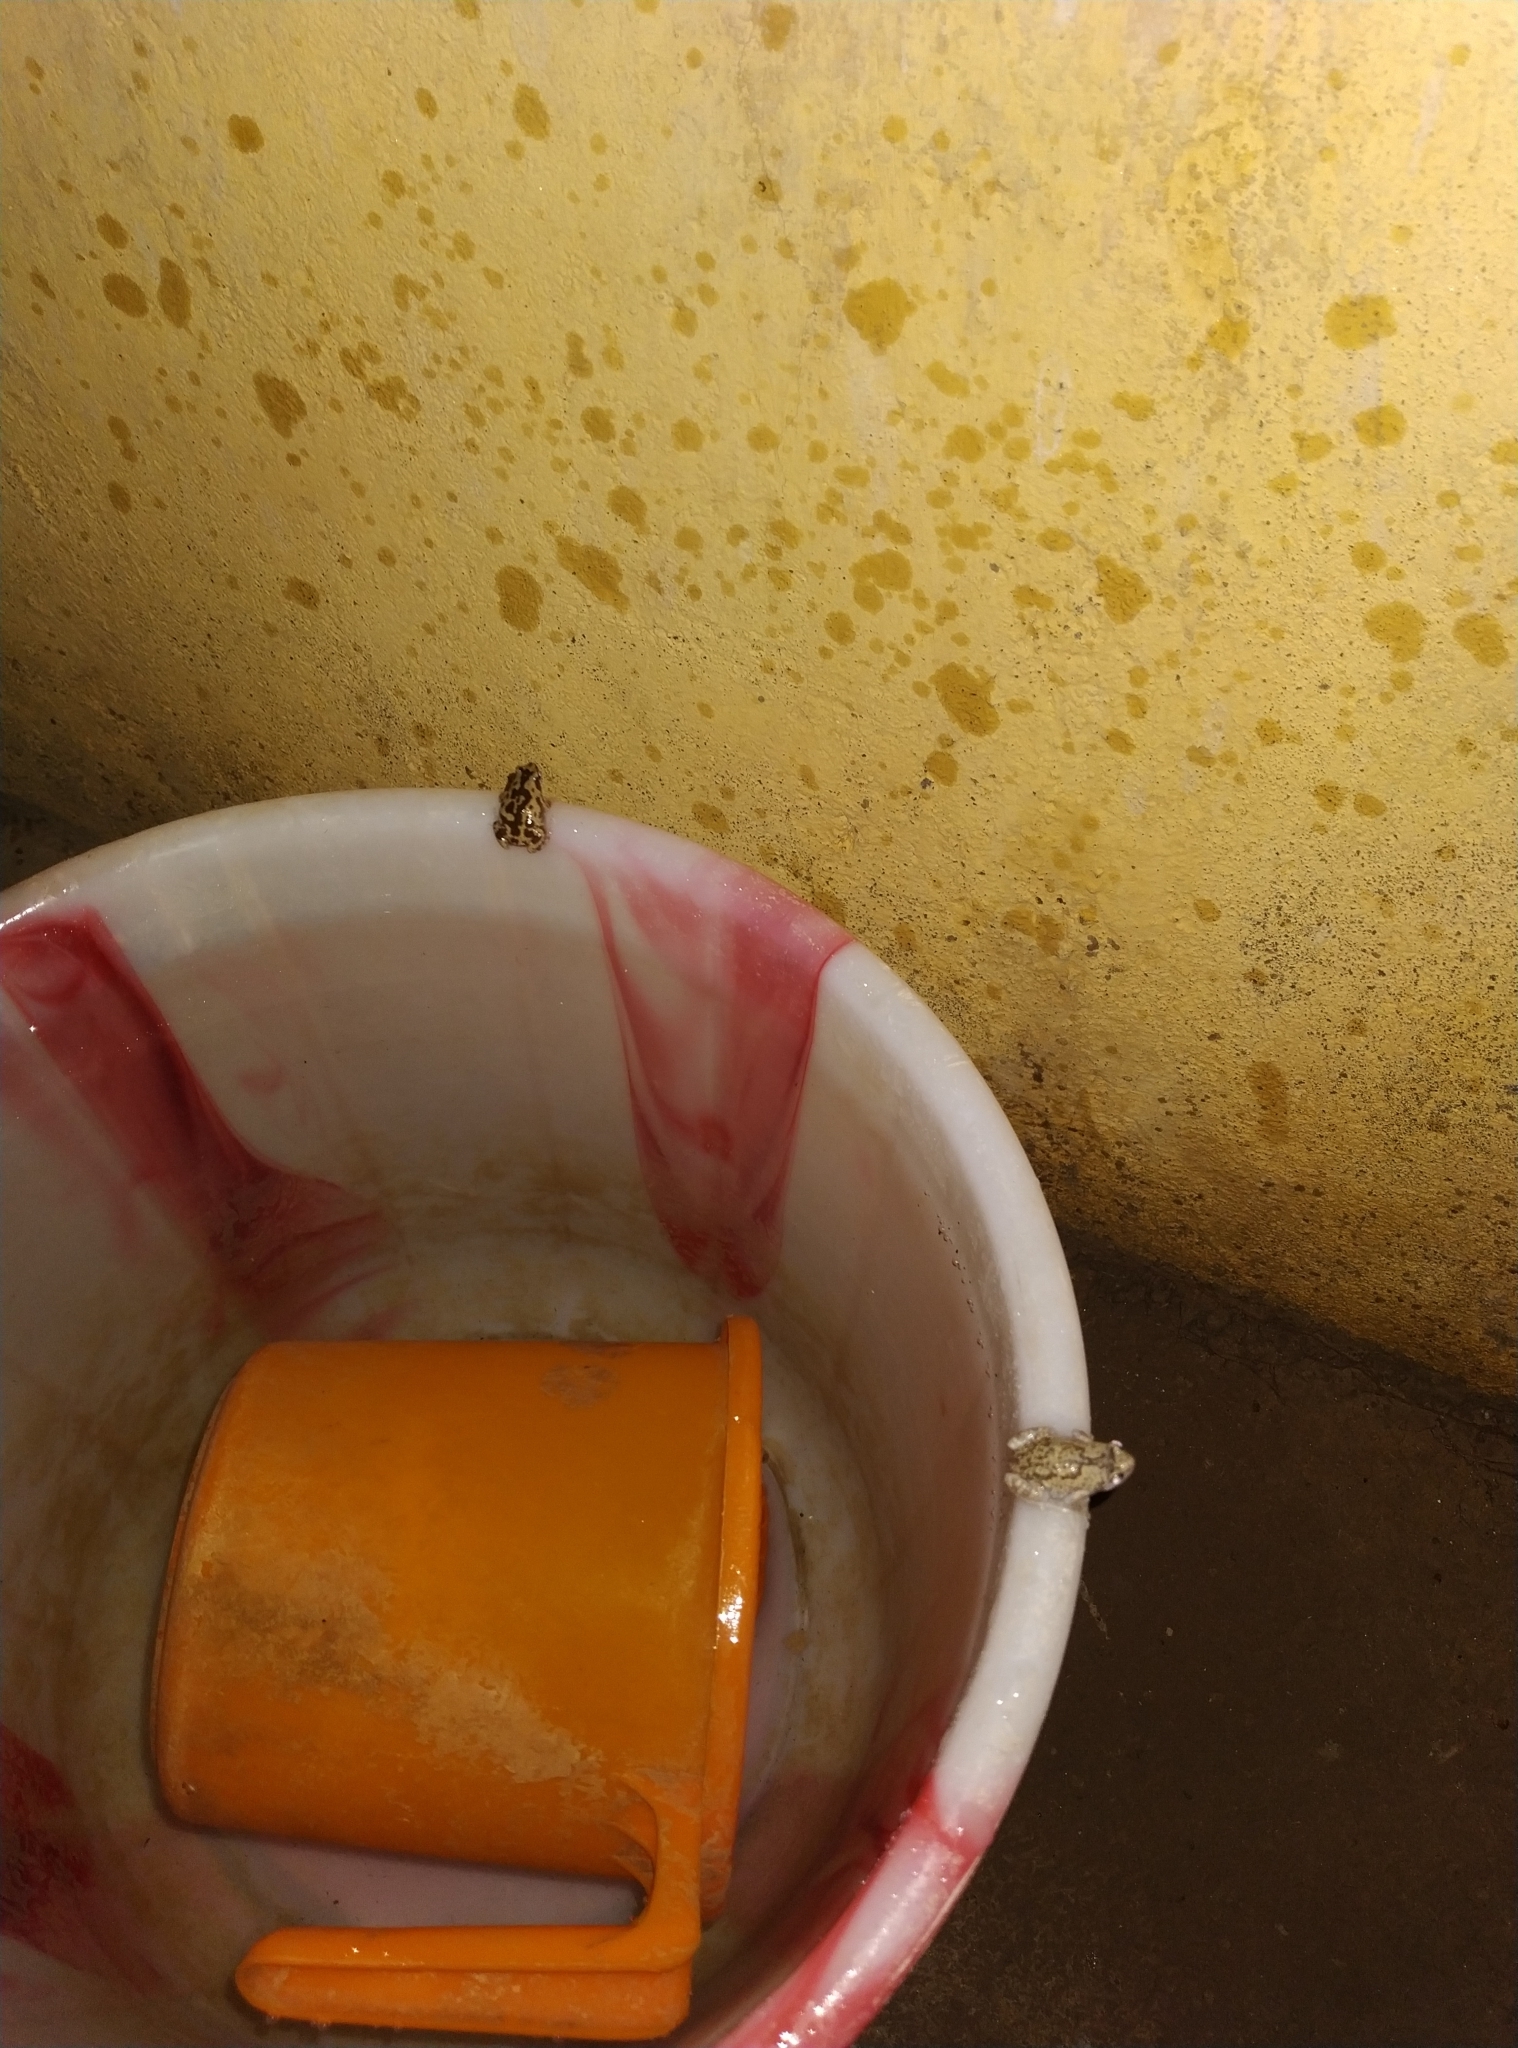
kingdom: Animalia
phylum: Chordata
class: Amphibia
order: Anura
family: Microhylidae
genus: Uperodon
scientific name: Uperodon variegatus
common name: Eluru dot frog
